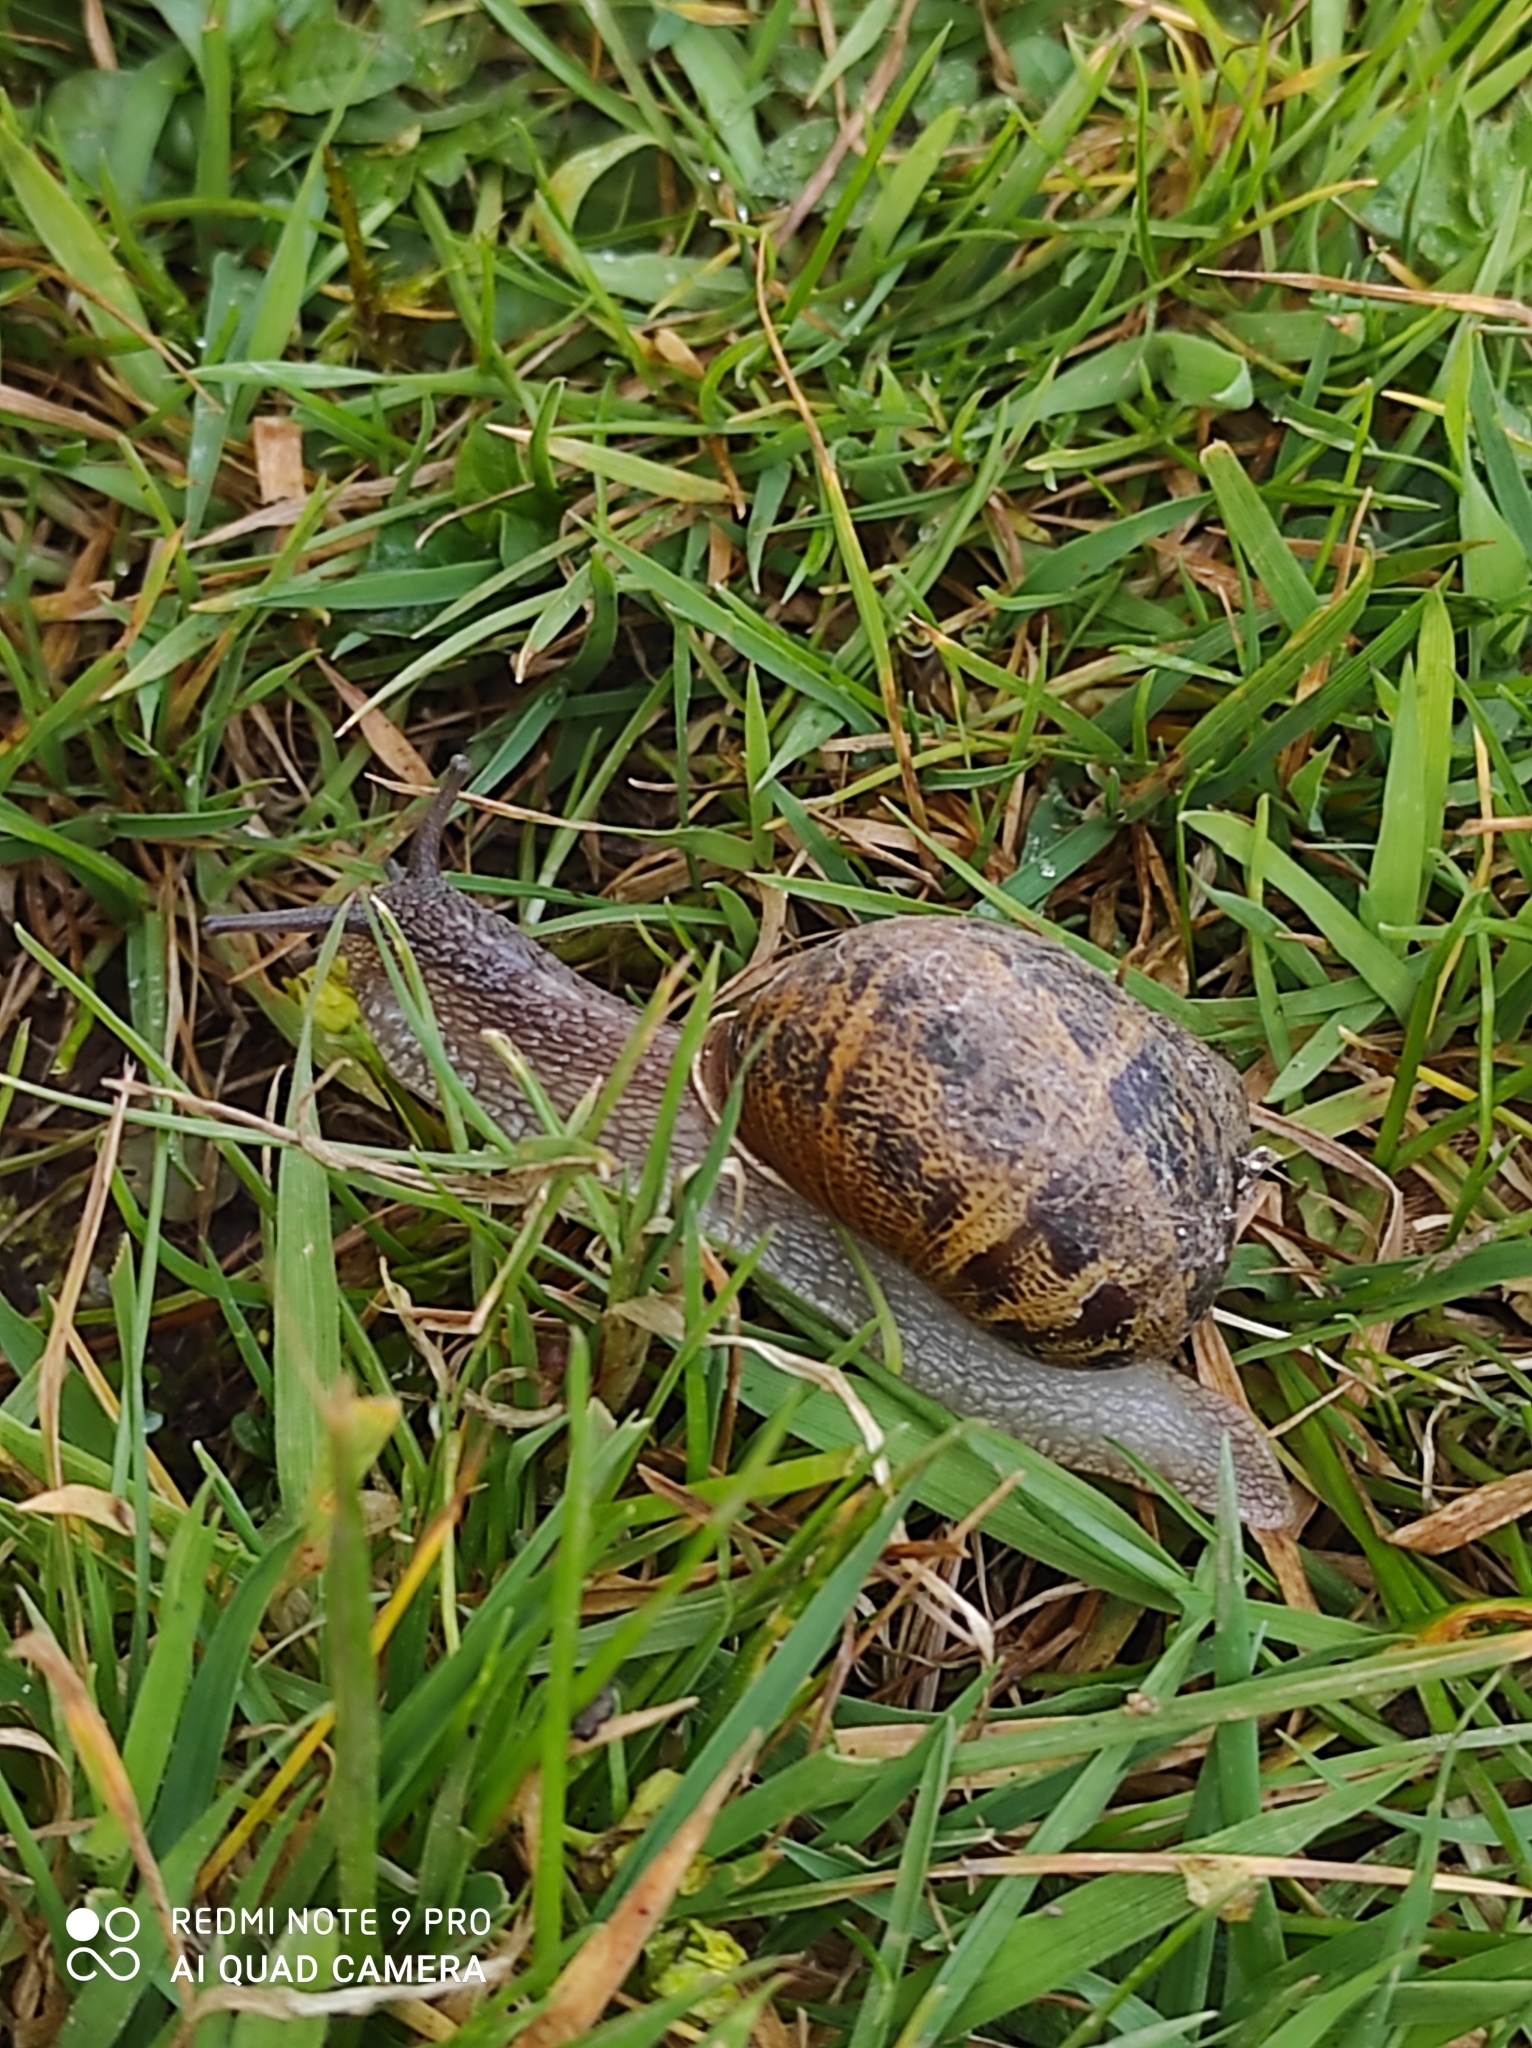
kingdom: Animalia
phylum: Mollusca
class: Gastropoda
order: Stylommatophora
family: Helicidae
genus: Cornu
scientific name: Cornu aspersum
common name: Brown garden snail
